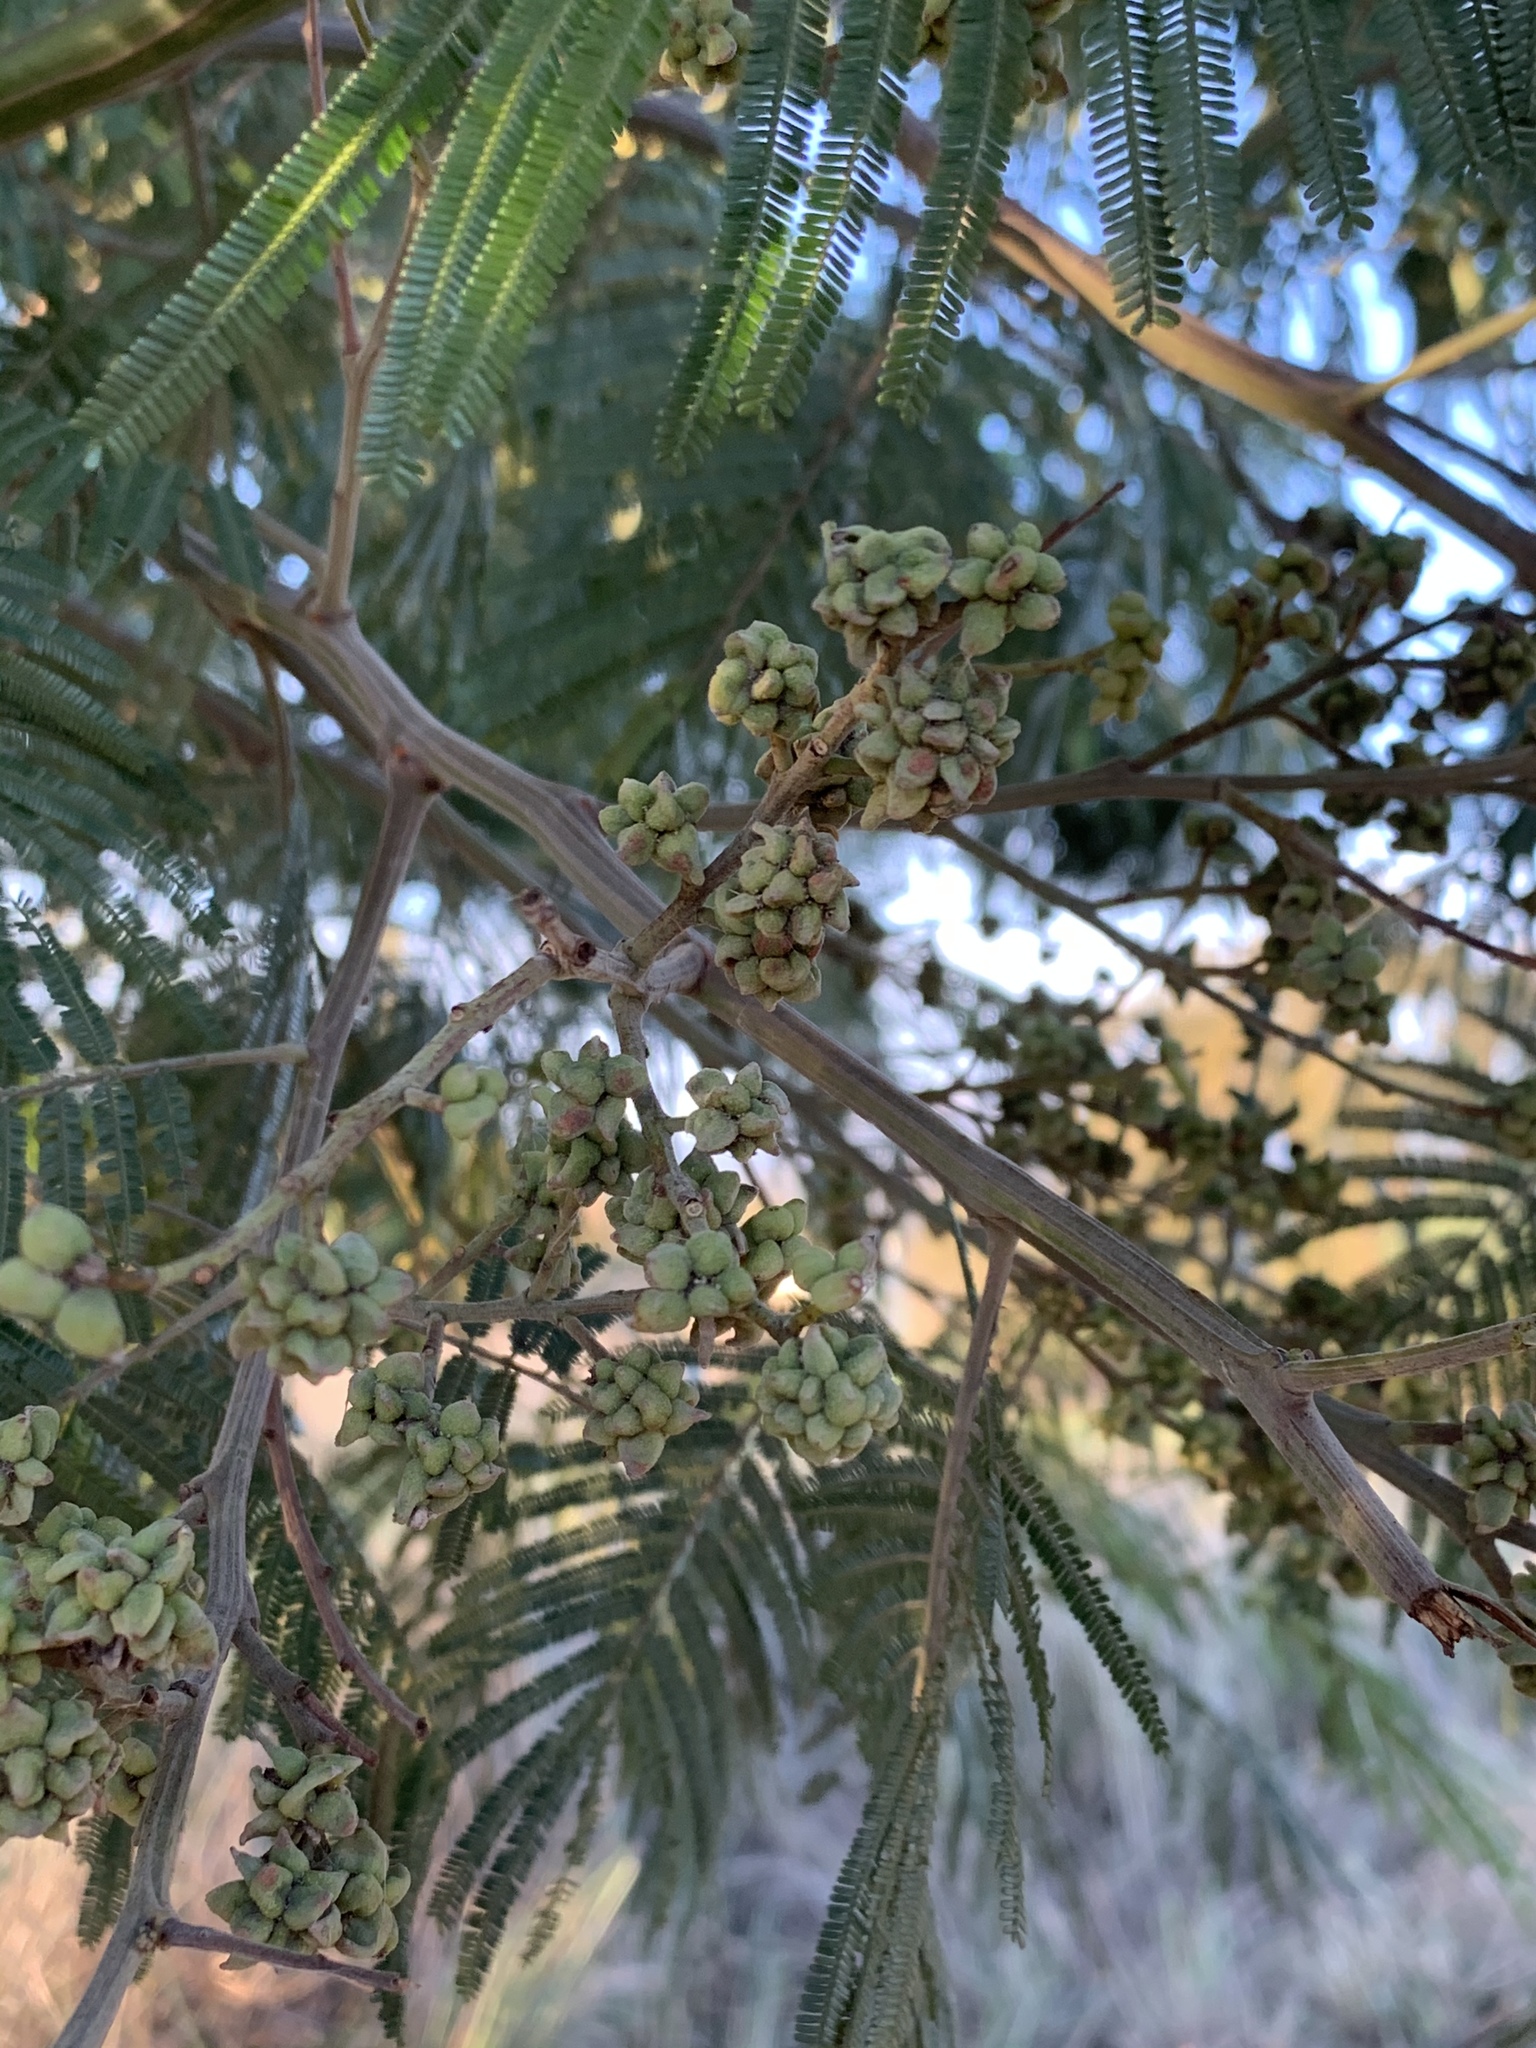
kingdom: Plantae
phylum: Tracheophyta
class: Magnoliopsida
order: Fabales
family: Fabaceae
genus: Acacia
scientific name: Acacia mearnsii
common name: Black wattle
